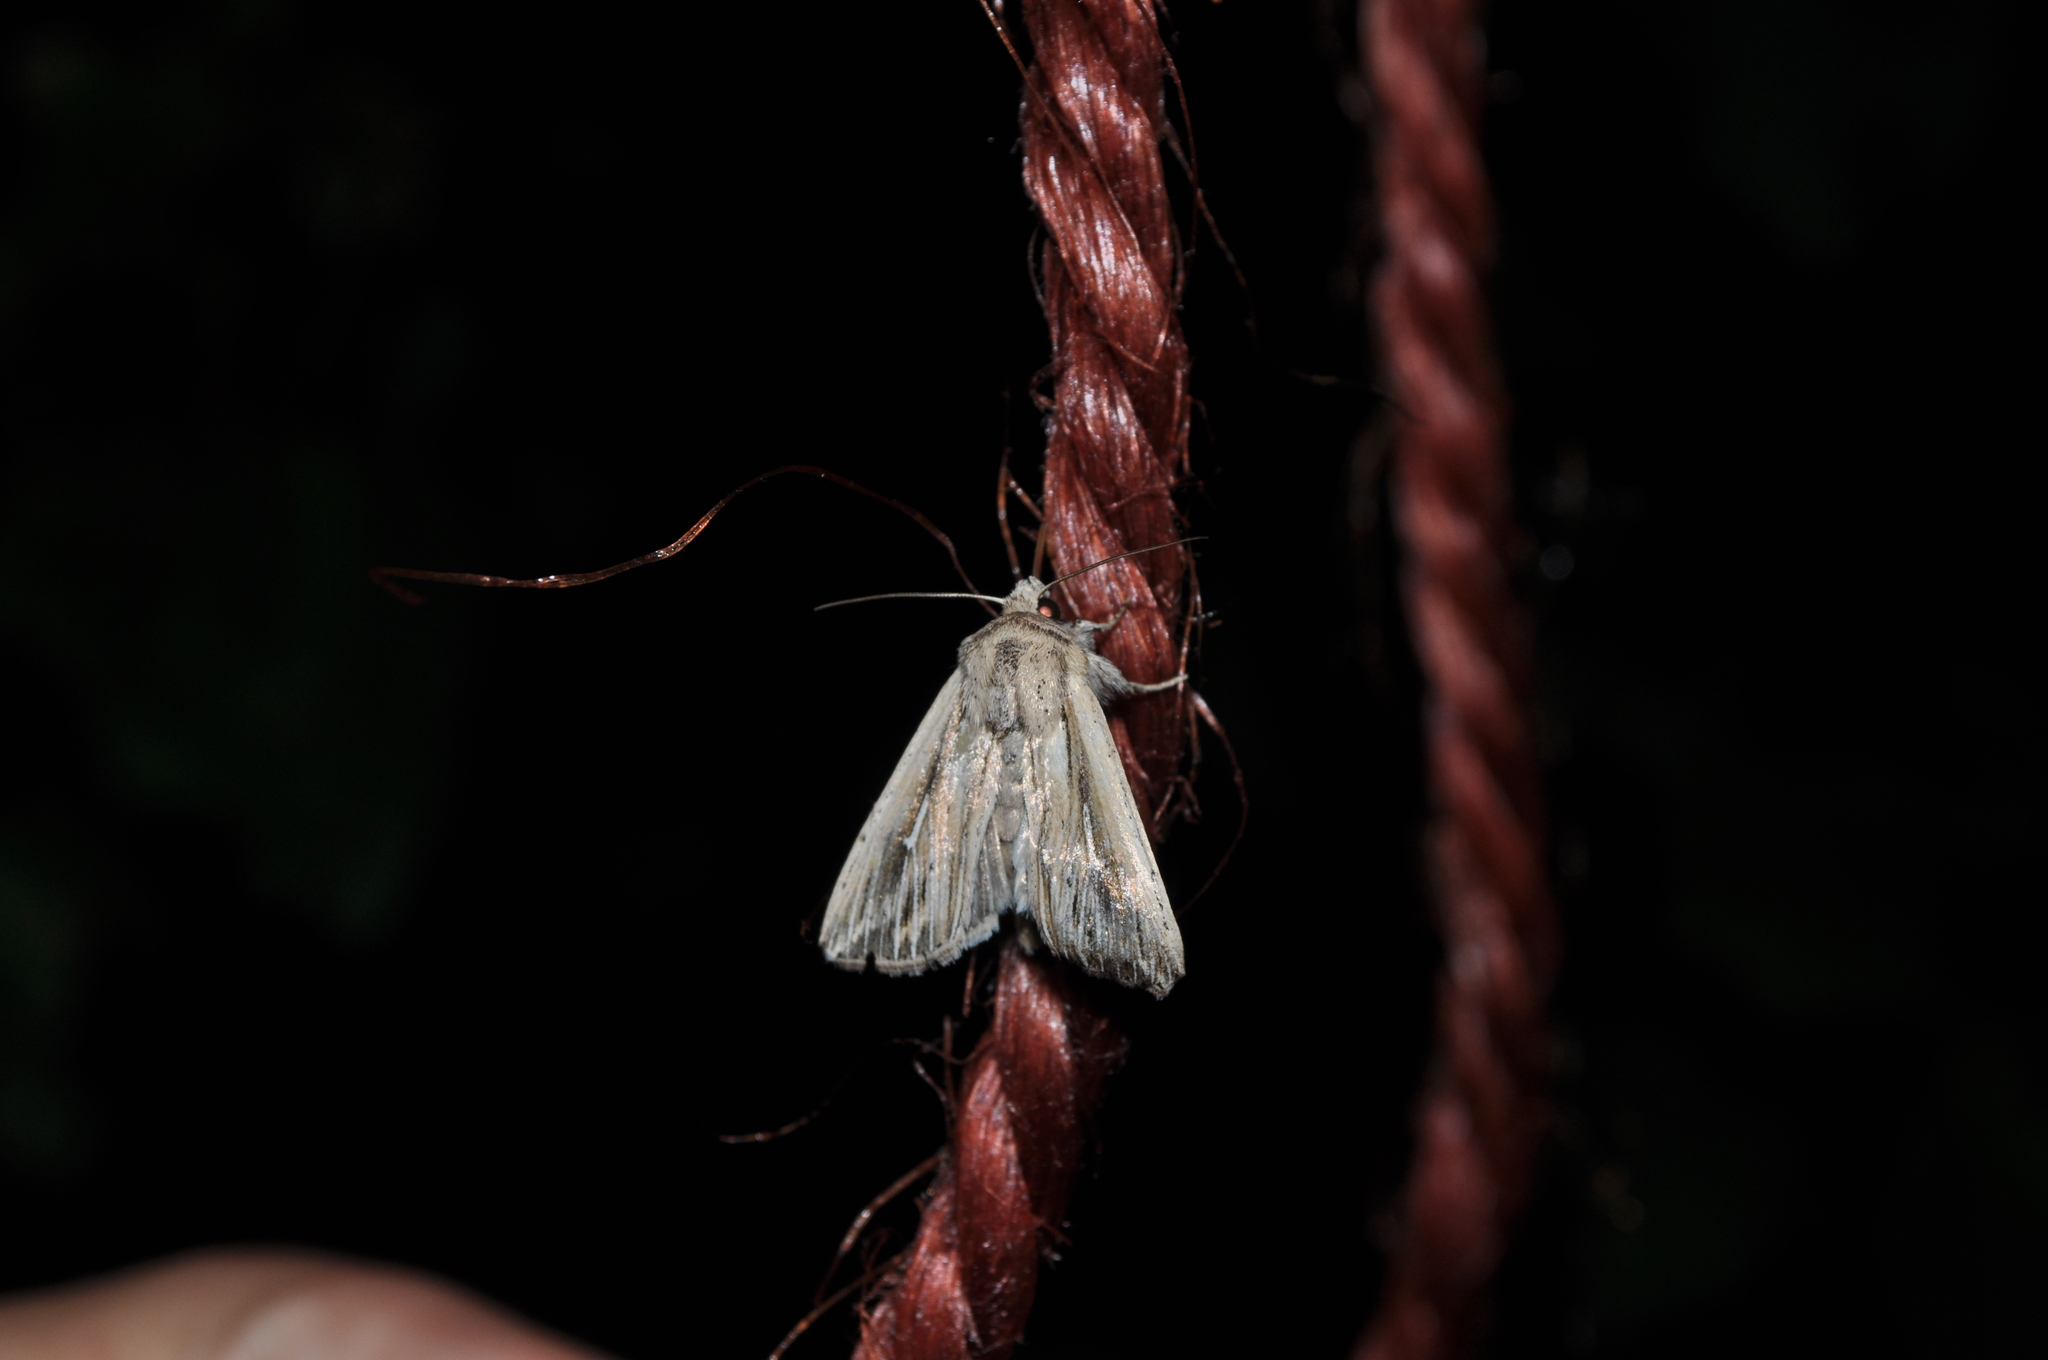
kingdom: Animalia
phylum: Arthropoda
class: Insecta
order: Lepidoptera
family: Noctuidae
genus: Mythimna
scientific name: Mythimna l-album
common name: L-album wainscot
